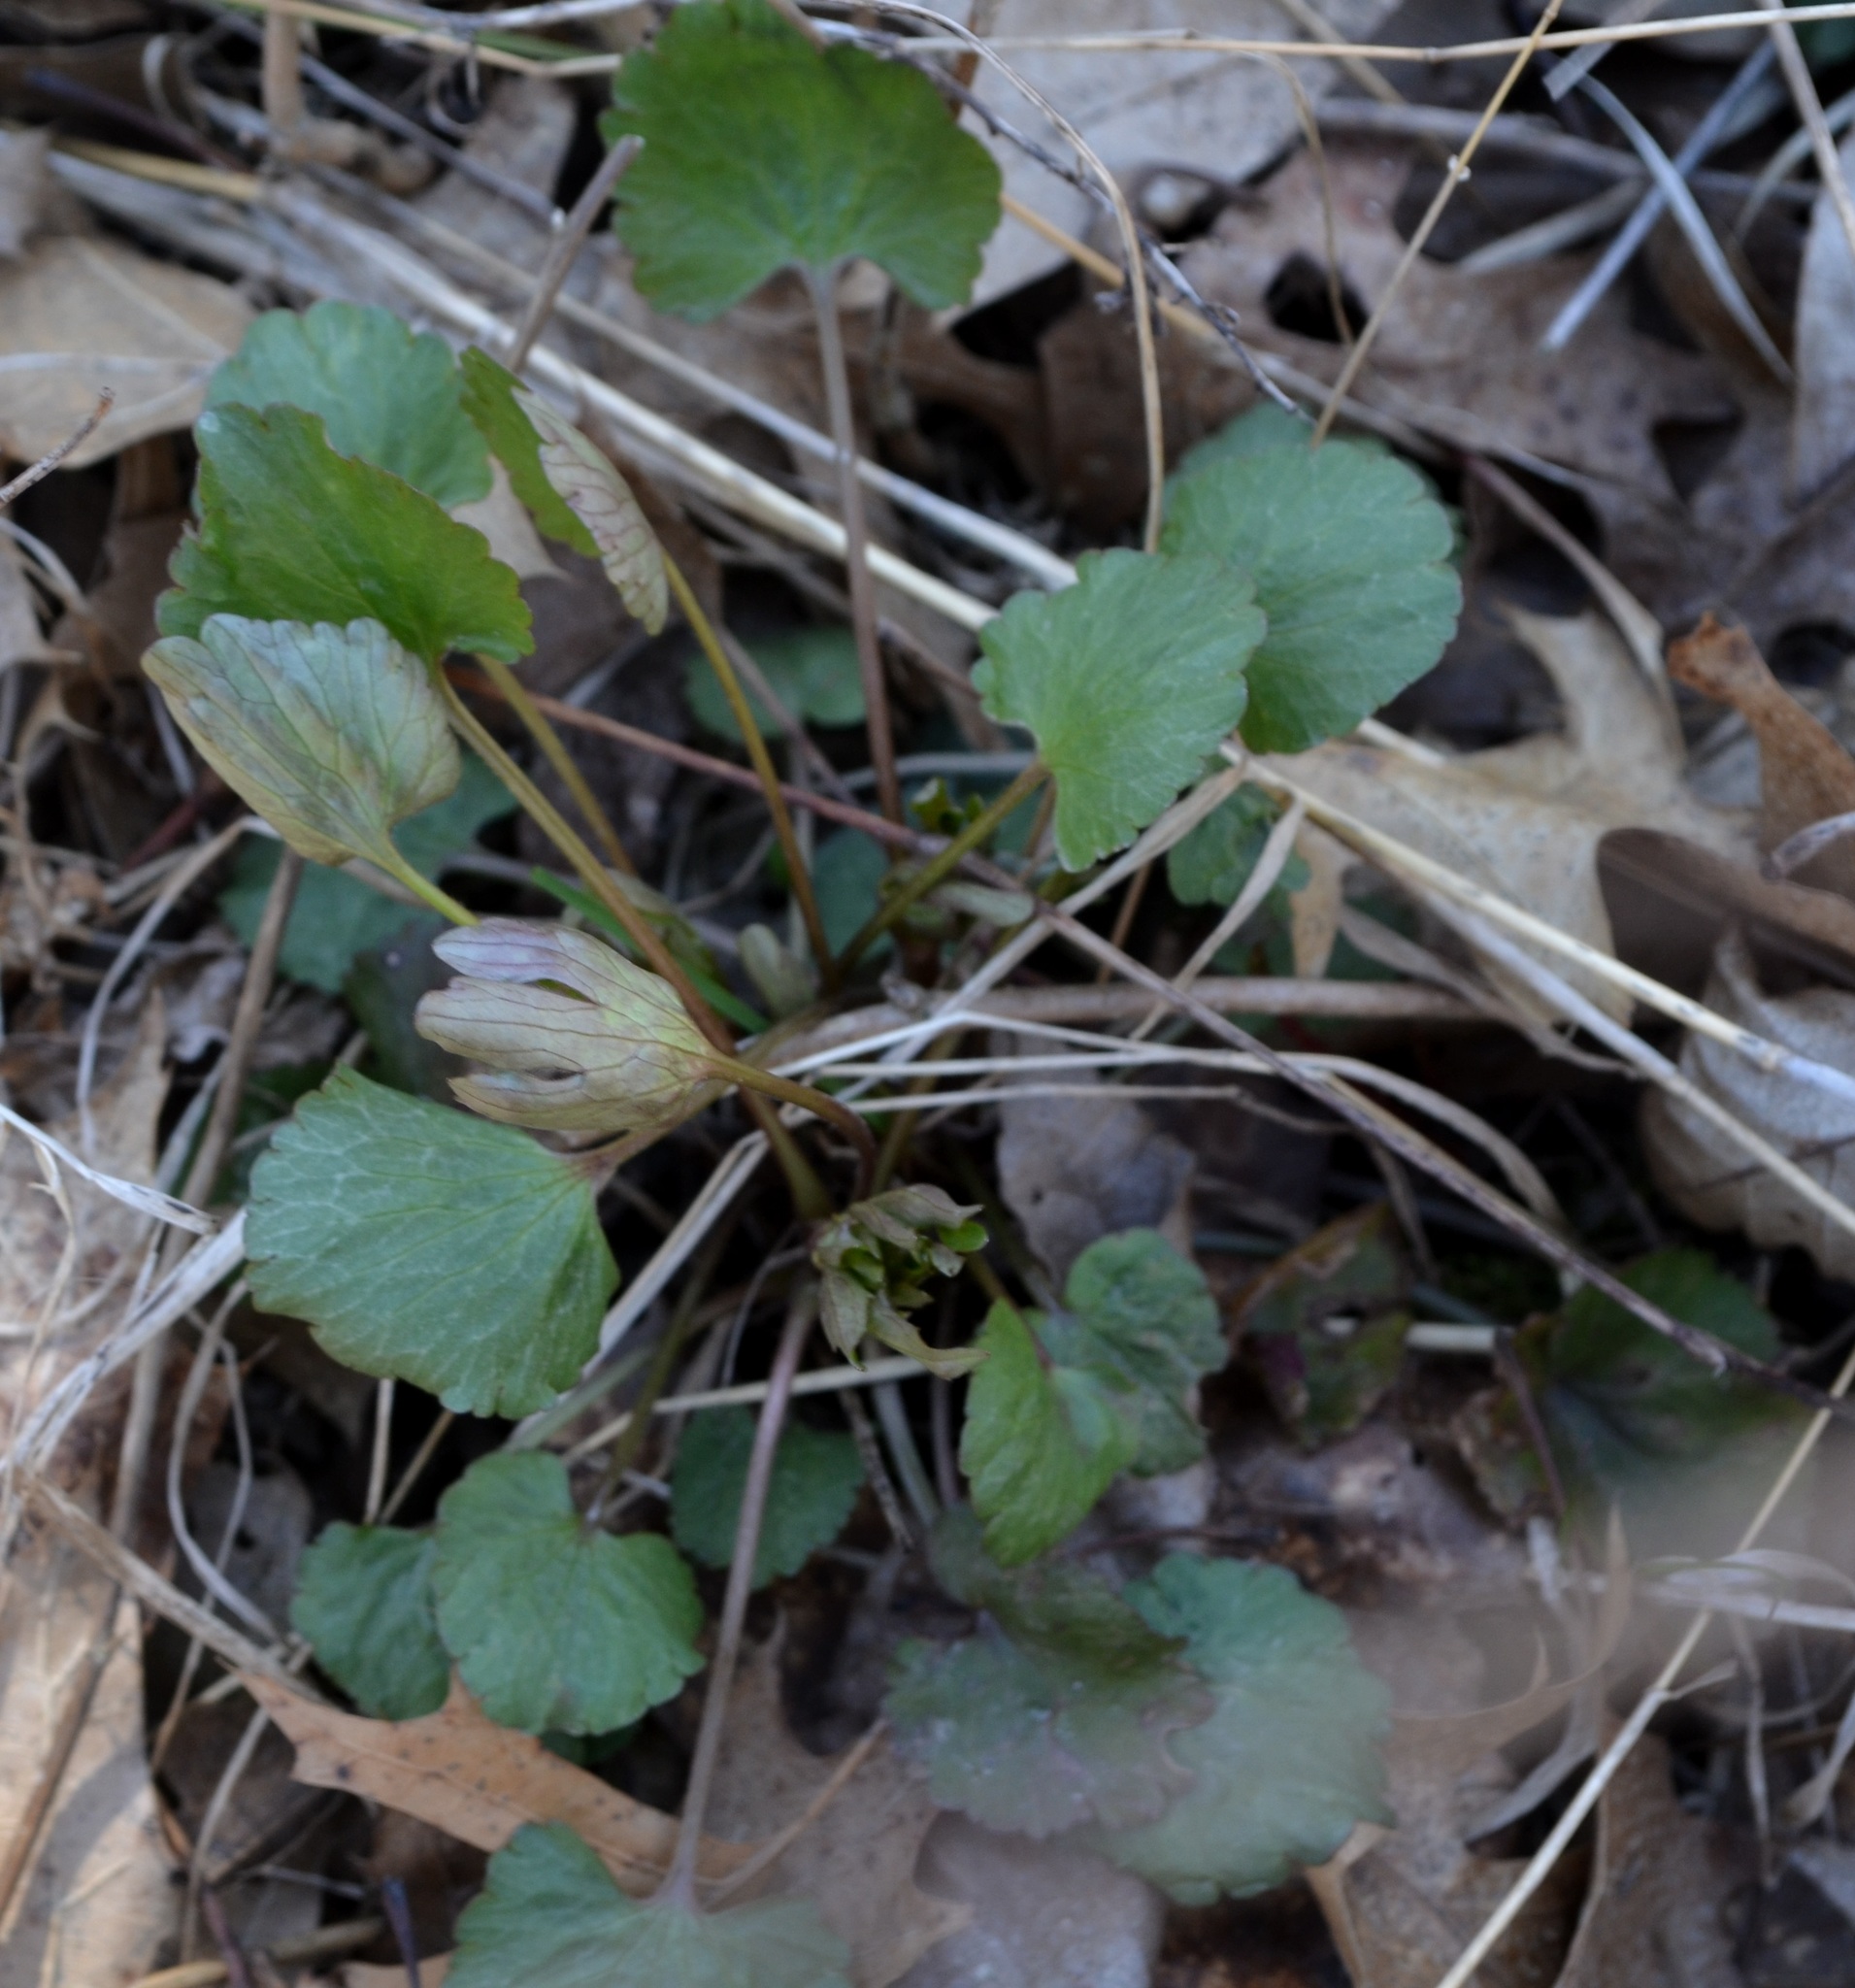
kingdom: Plantae
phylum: Tracheophyta
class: Magnoliopsida
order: Ranunculales
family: Ranunculaceae
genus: Ranunculus
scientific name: Ranunculus abortivus
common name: Early wood buttercup
